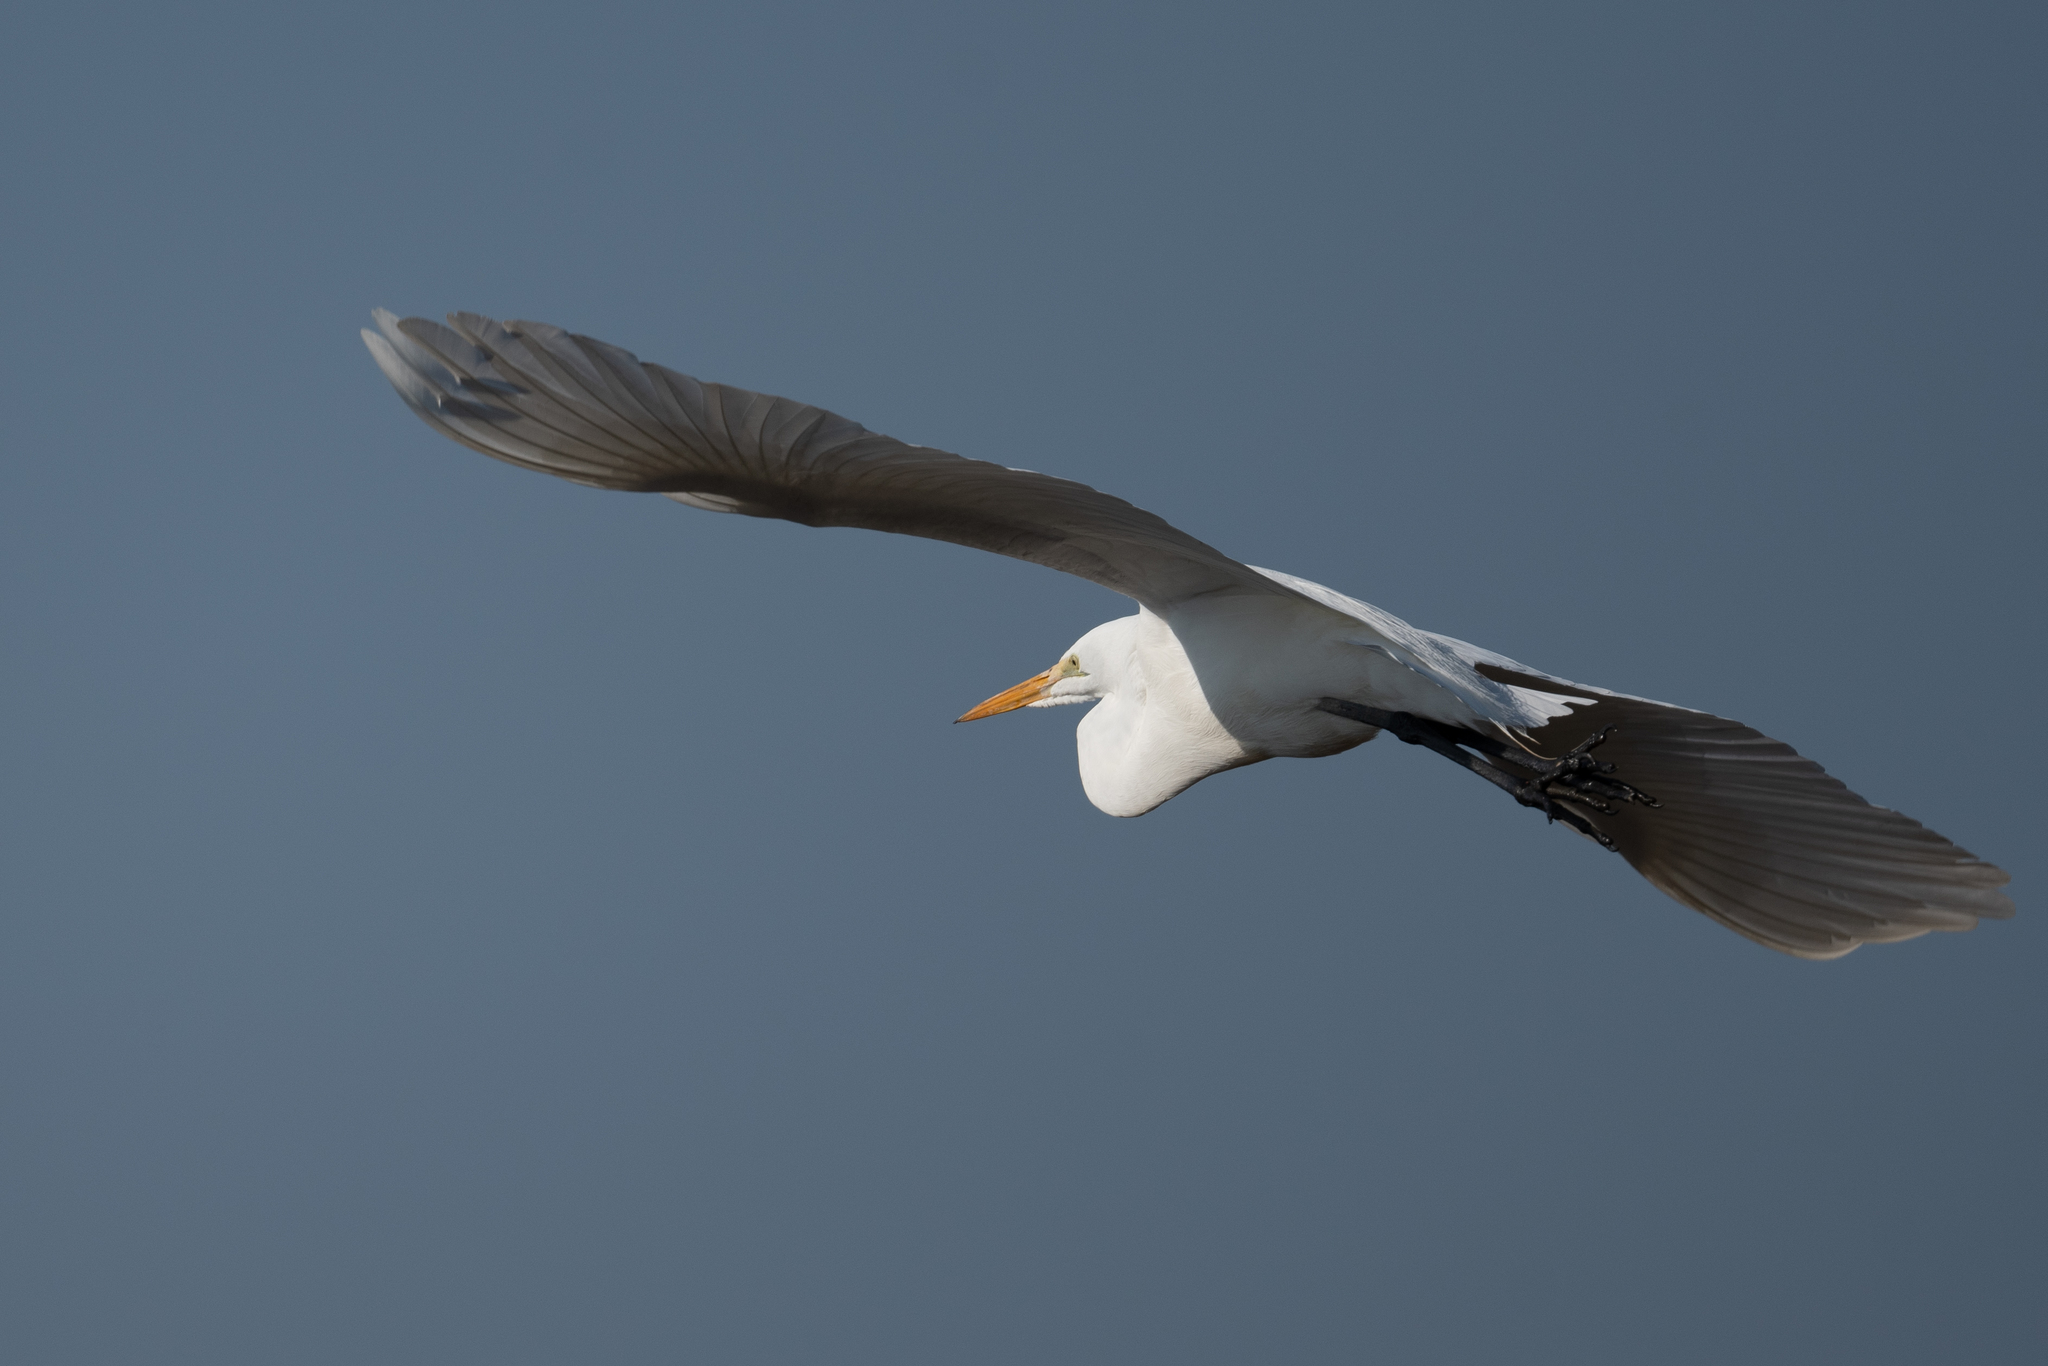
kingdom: Animalia
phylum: Chordata
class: Aves
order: Pelecaniformes
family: Ardeidae
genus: Ardea
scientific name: Ardea alba
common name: Great egret
